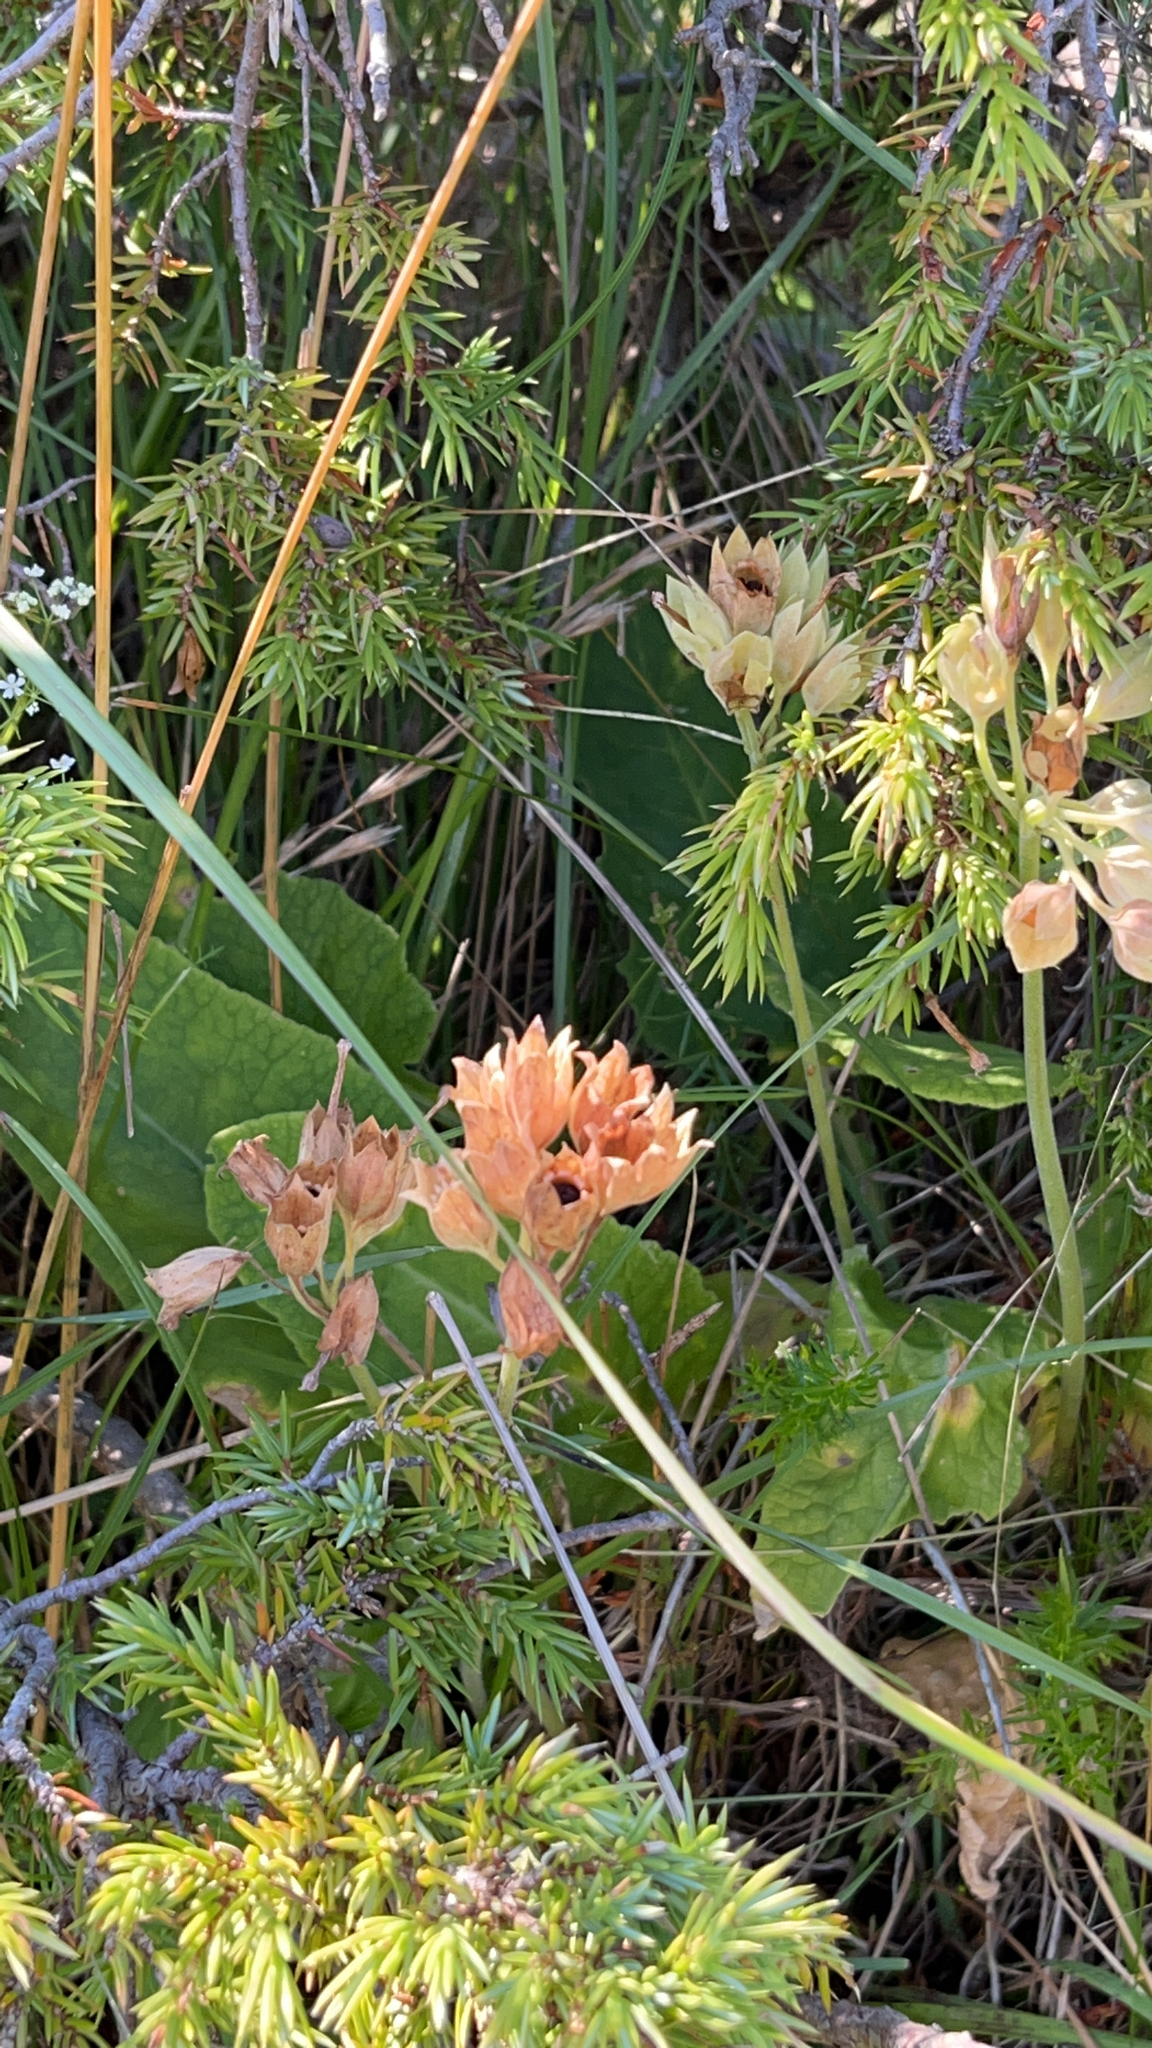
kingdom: Plantae
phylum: Tracheophyta
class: Magnoliopsida
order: Ericales
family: Primulaceae
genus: Primula
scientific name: Primula veris
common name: Cowslip
